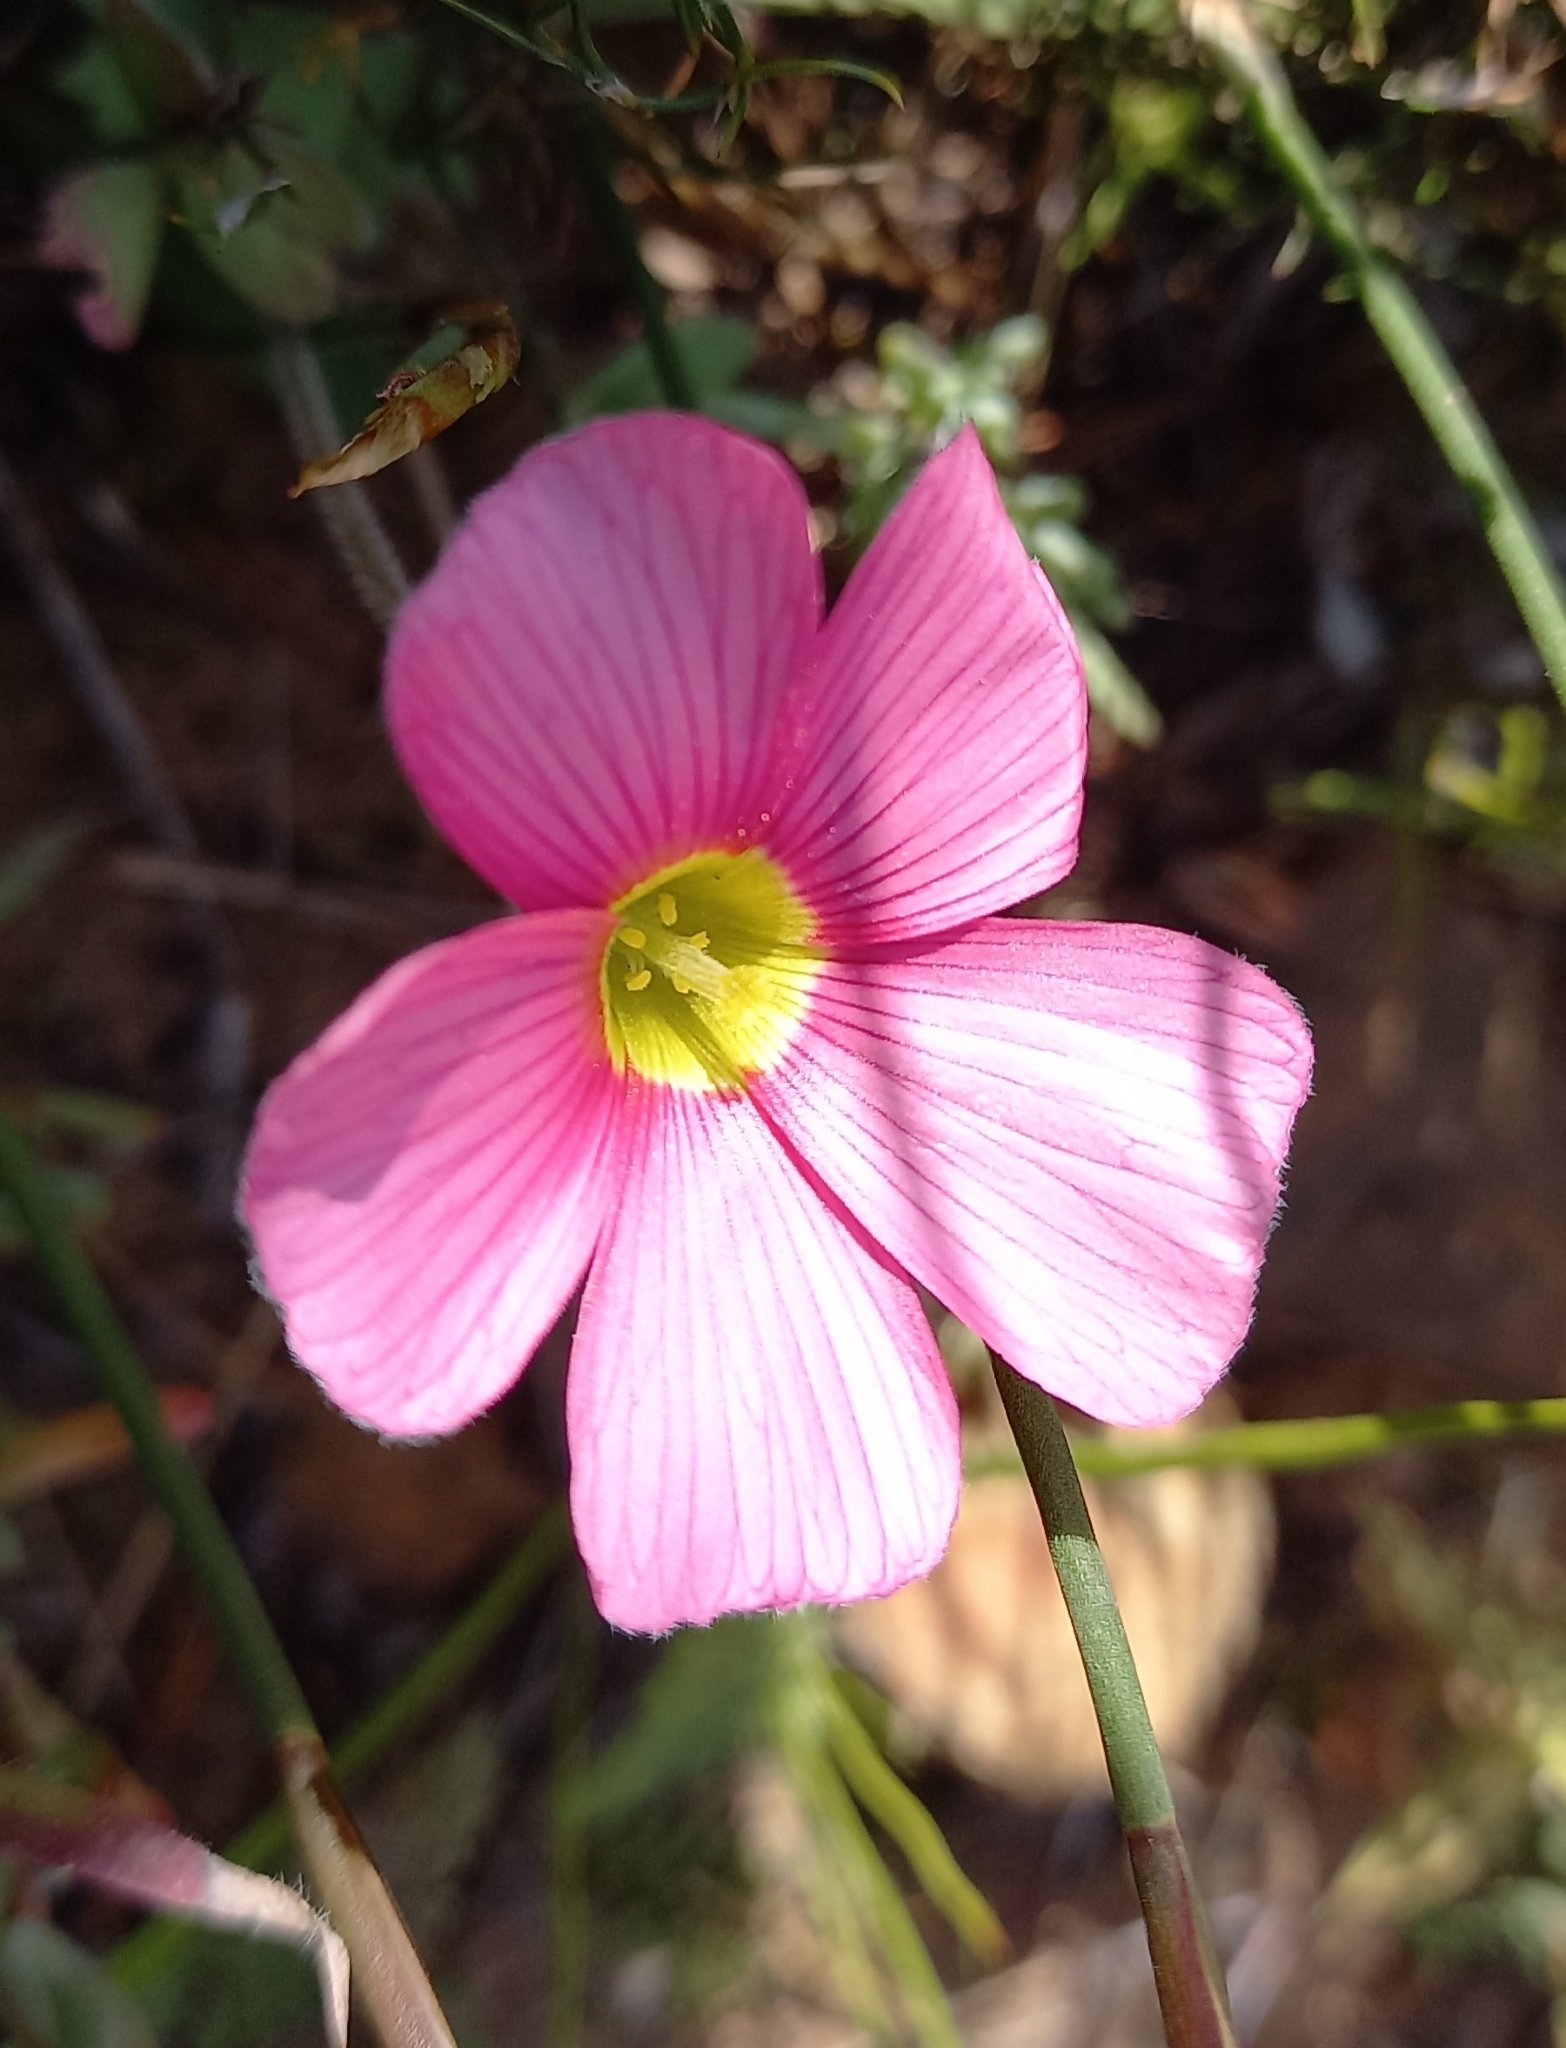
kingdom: Plantae
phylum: Tracheophyta
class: Magnoliopsida
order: Oxalidales
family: Oxalidaceae
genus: Oxalis
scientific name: Oxalis obtusa
